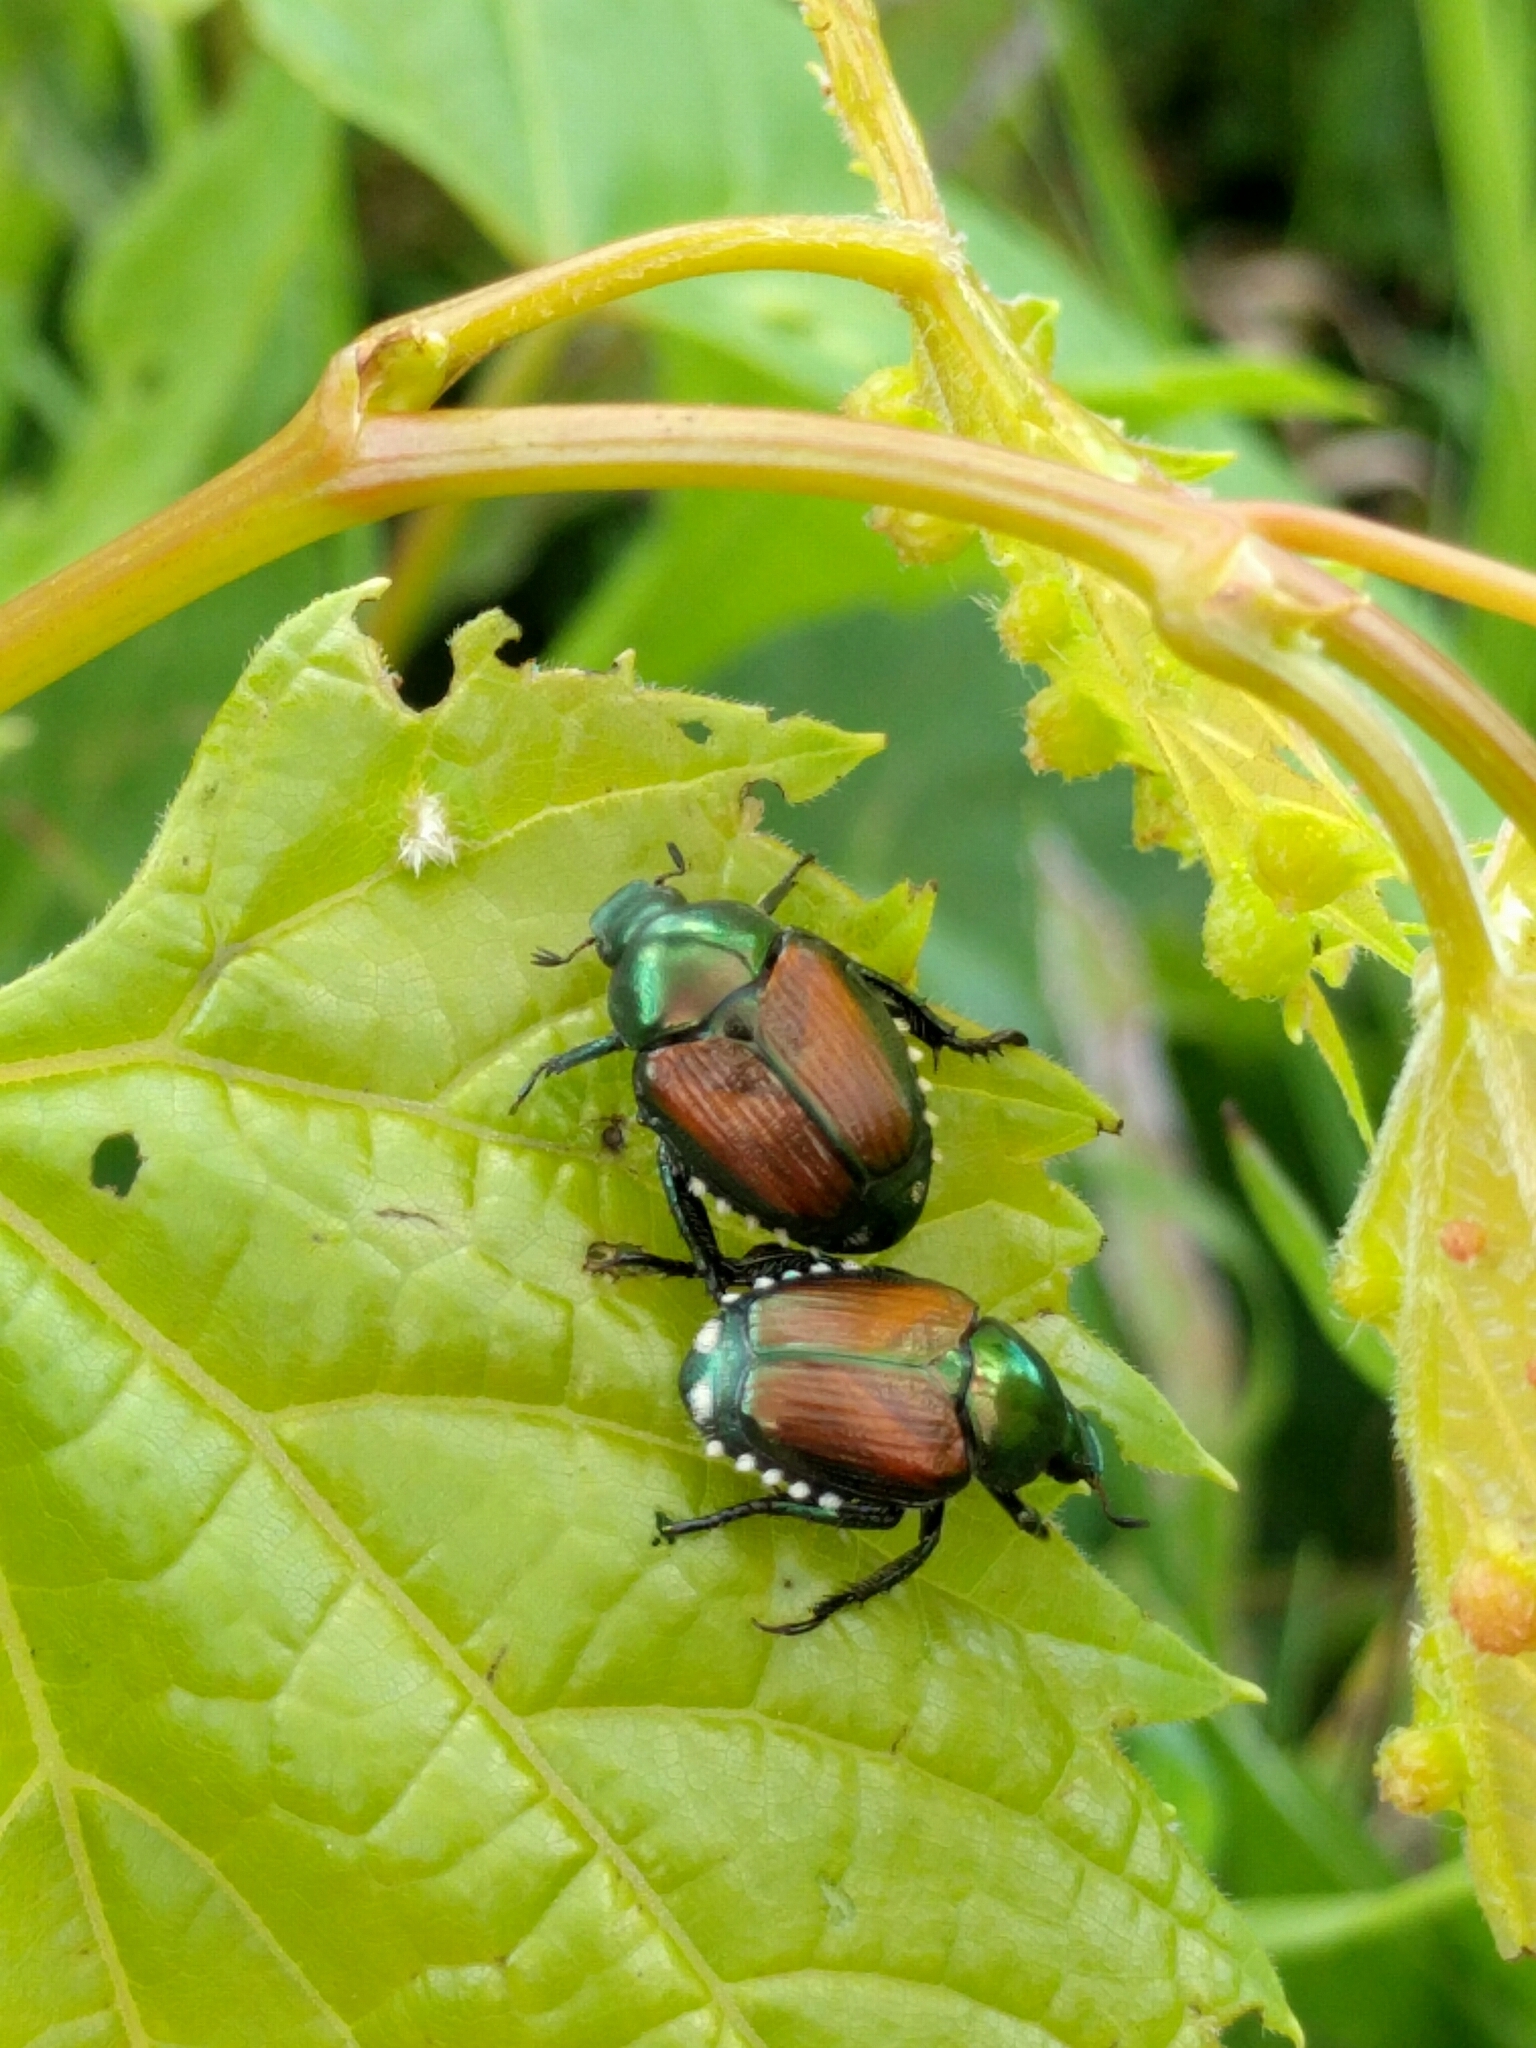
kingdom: Animalia
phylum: Arthropoda
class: Insecta
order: Coleoptera
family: Scarabaeidae
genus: Popillia
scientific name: Popillia japonica
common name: Japanese beetle
